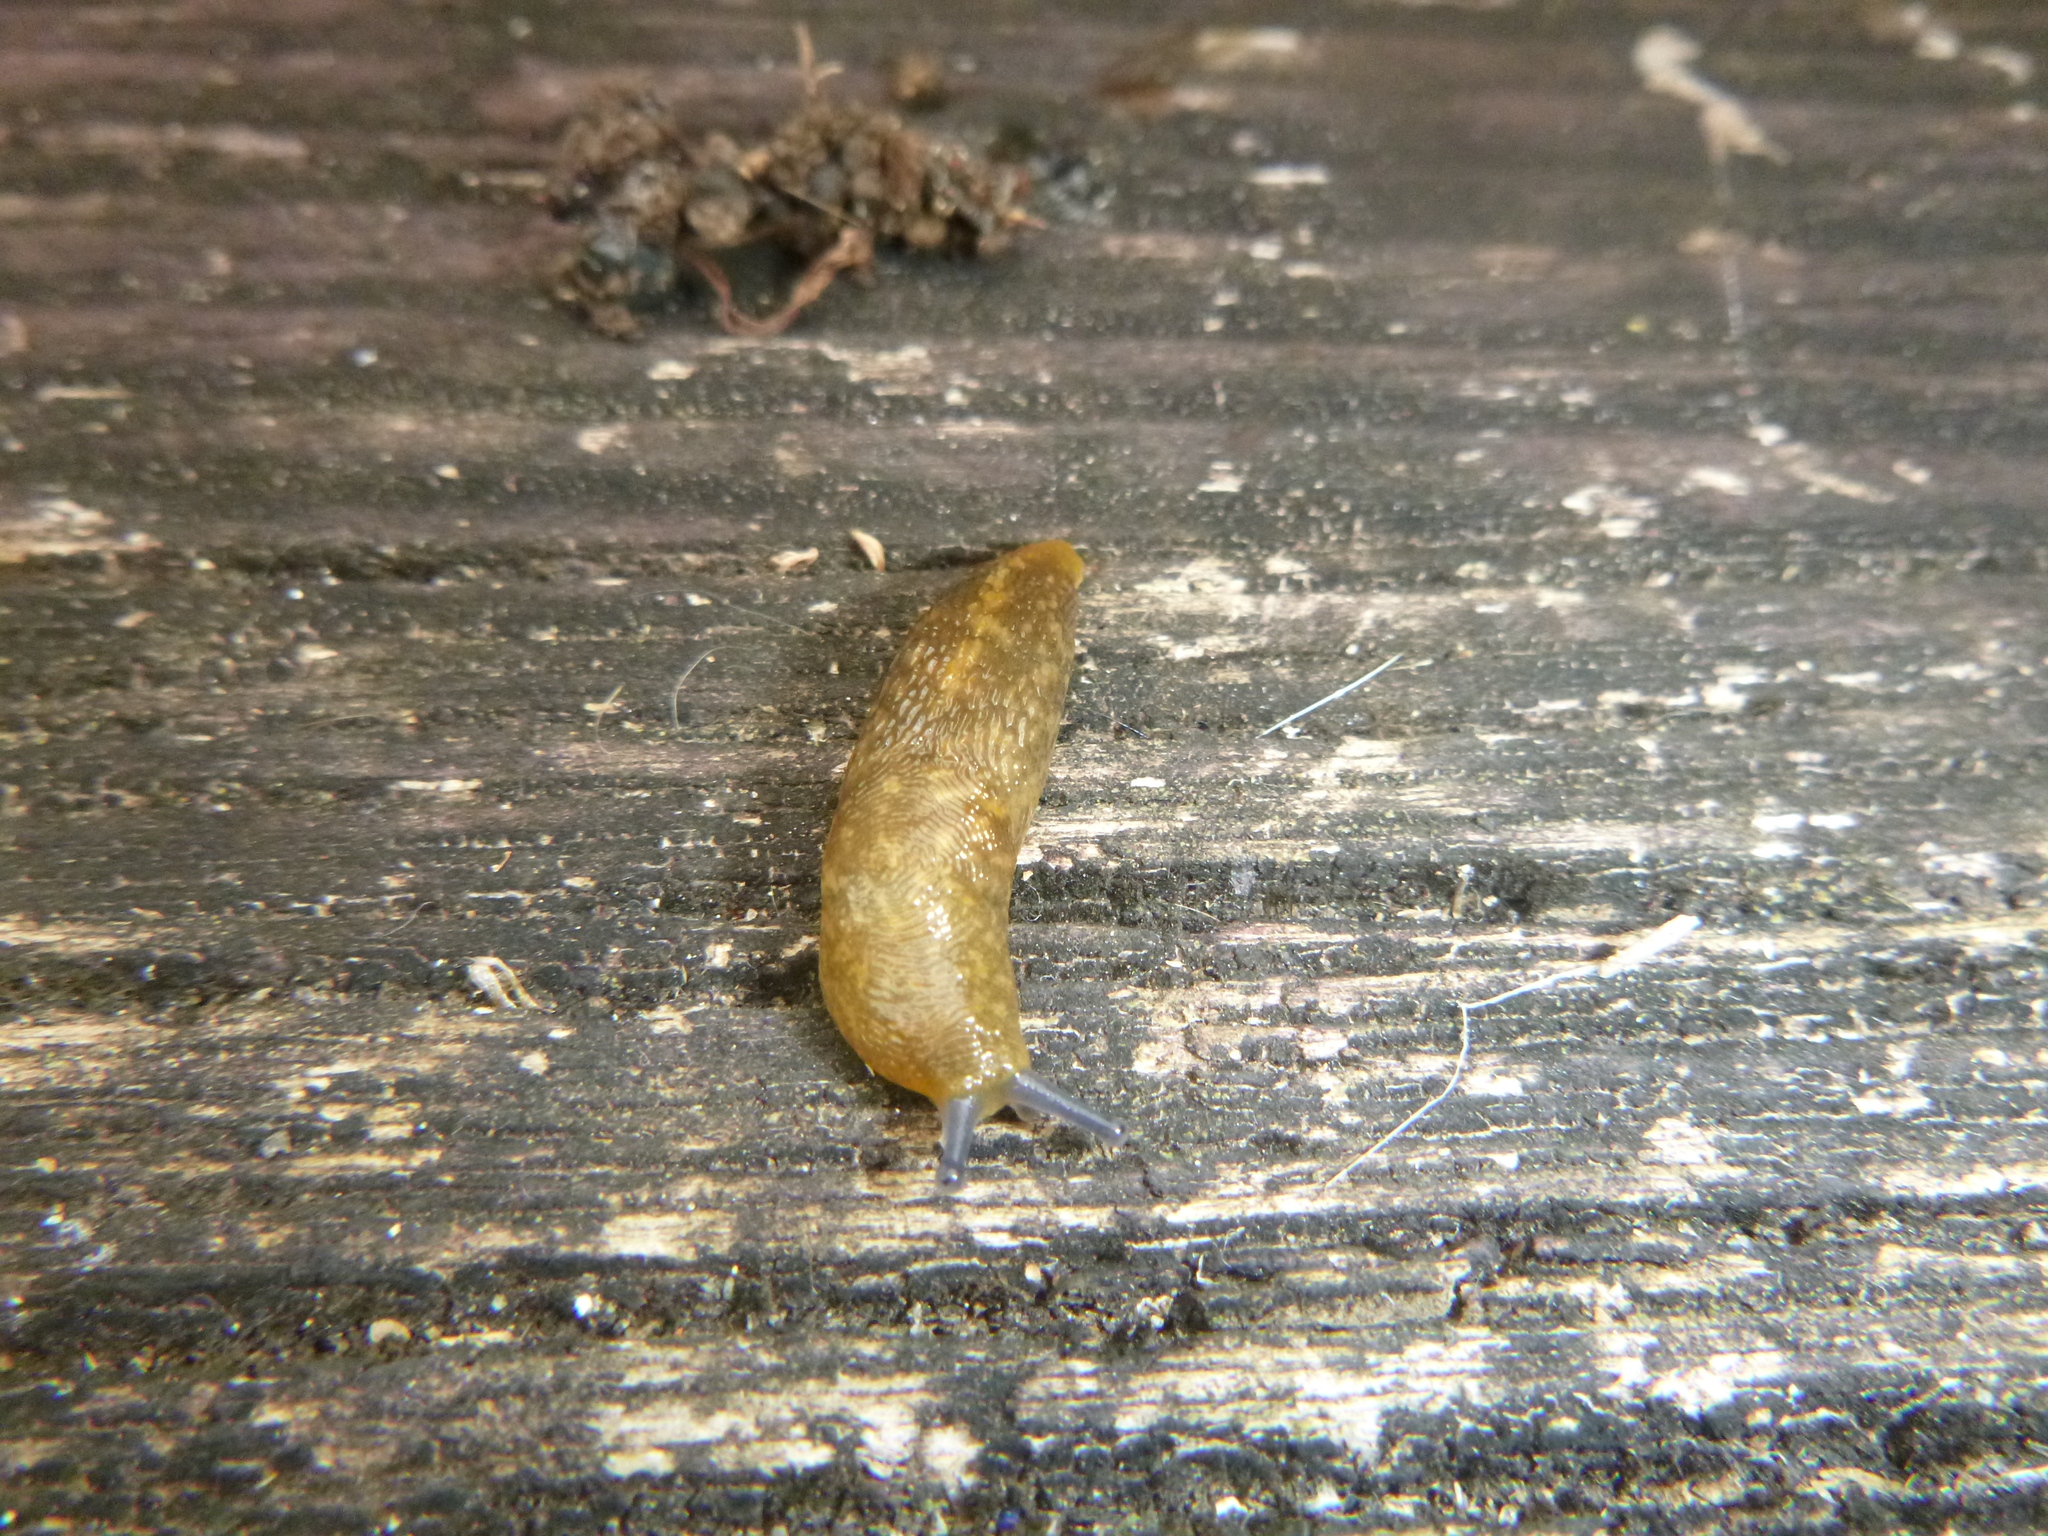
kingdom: Animalia
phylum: Mollusca
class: Gastropoda
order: Stylommatophora
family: Limacidae
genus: Limacus
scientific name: Limacus flavus
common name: Yellow gardenslug
